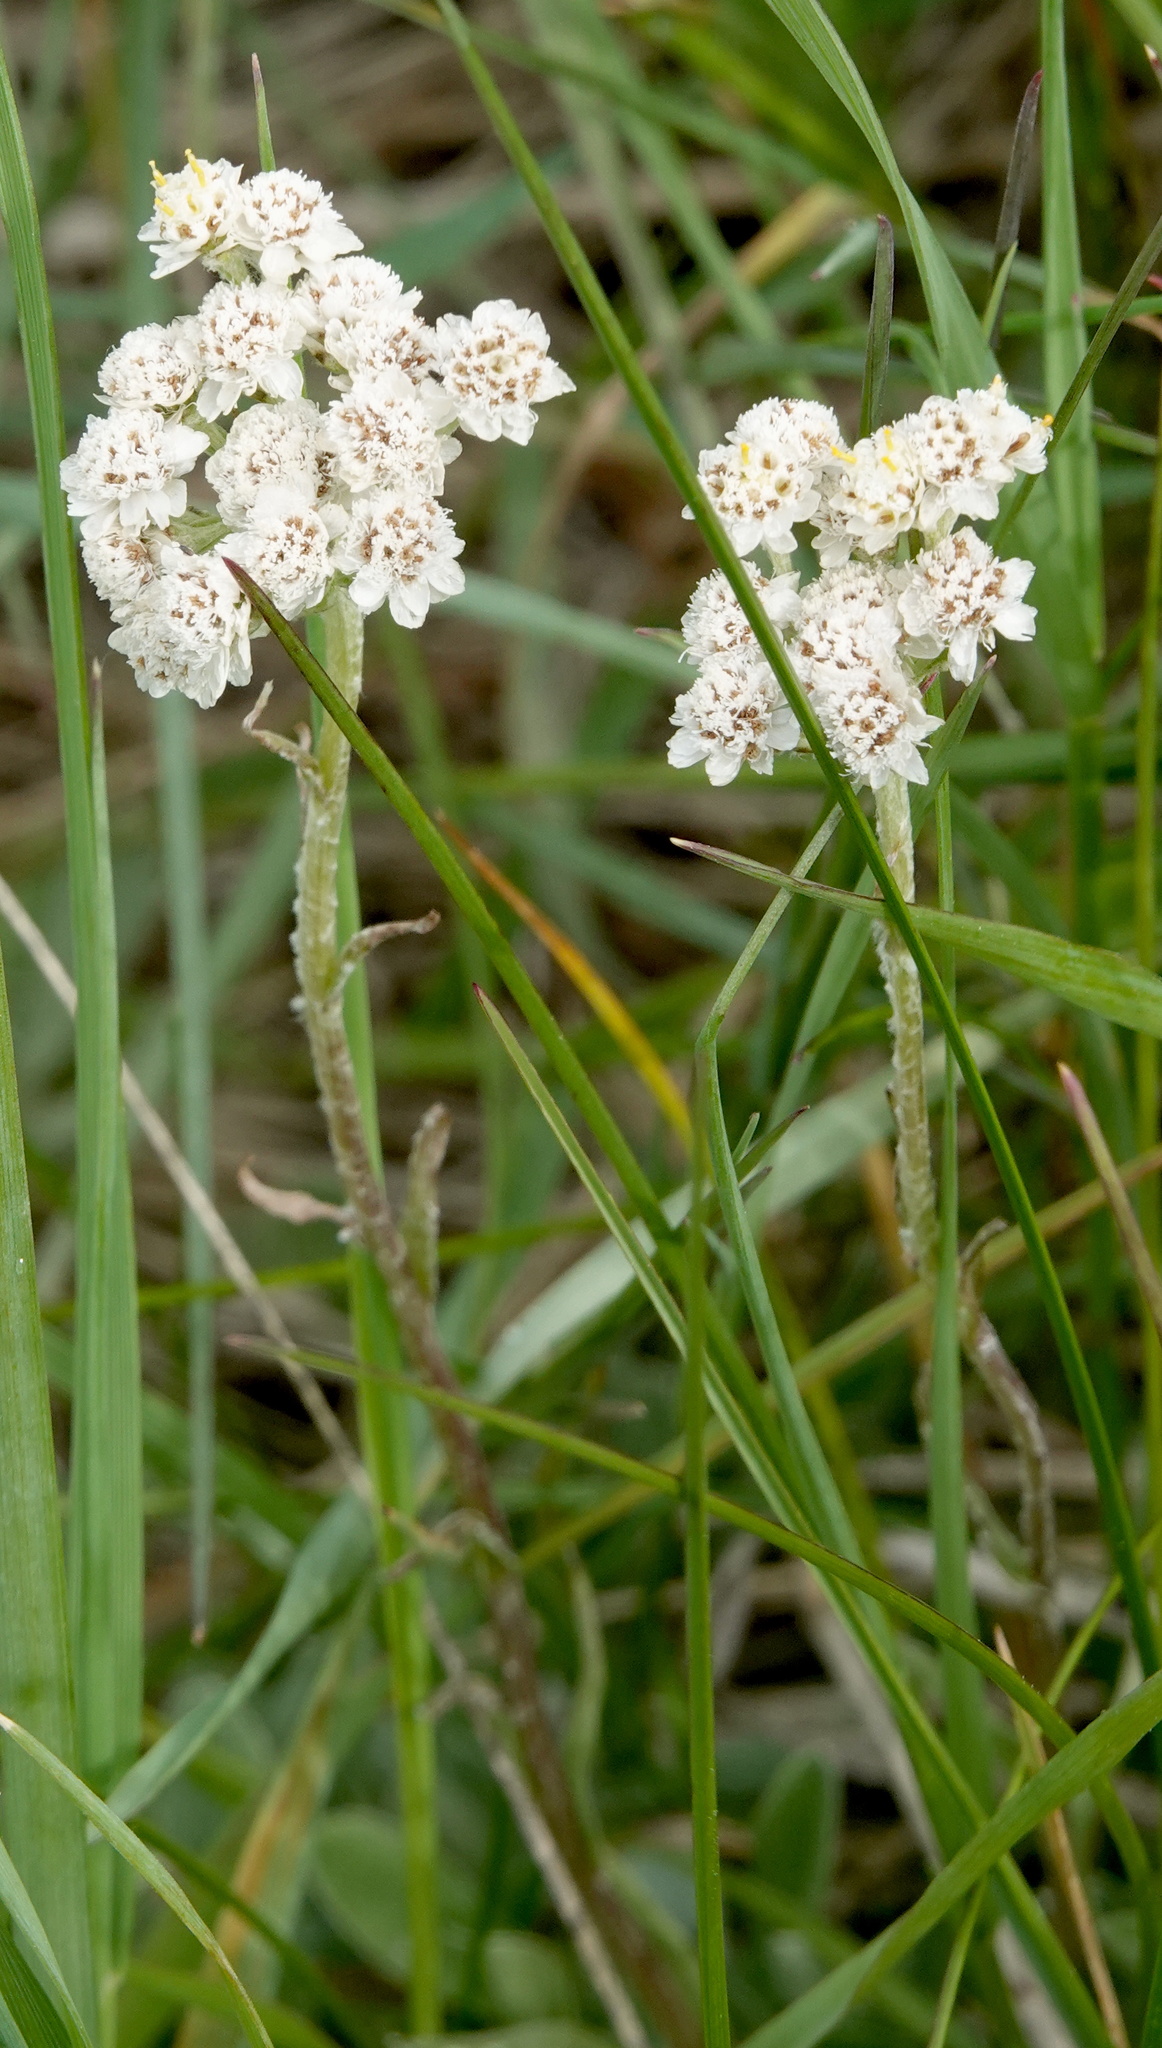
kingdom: Plantae
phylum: Tracheophyta
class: Magnoliopsida
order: Asterales
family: Asteraceae
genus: Anaphalis
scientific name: Anaphalis margaritacea
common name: Pearly everlasting
